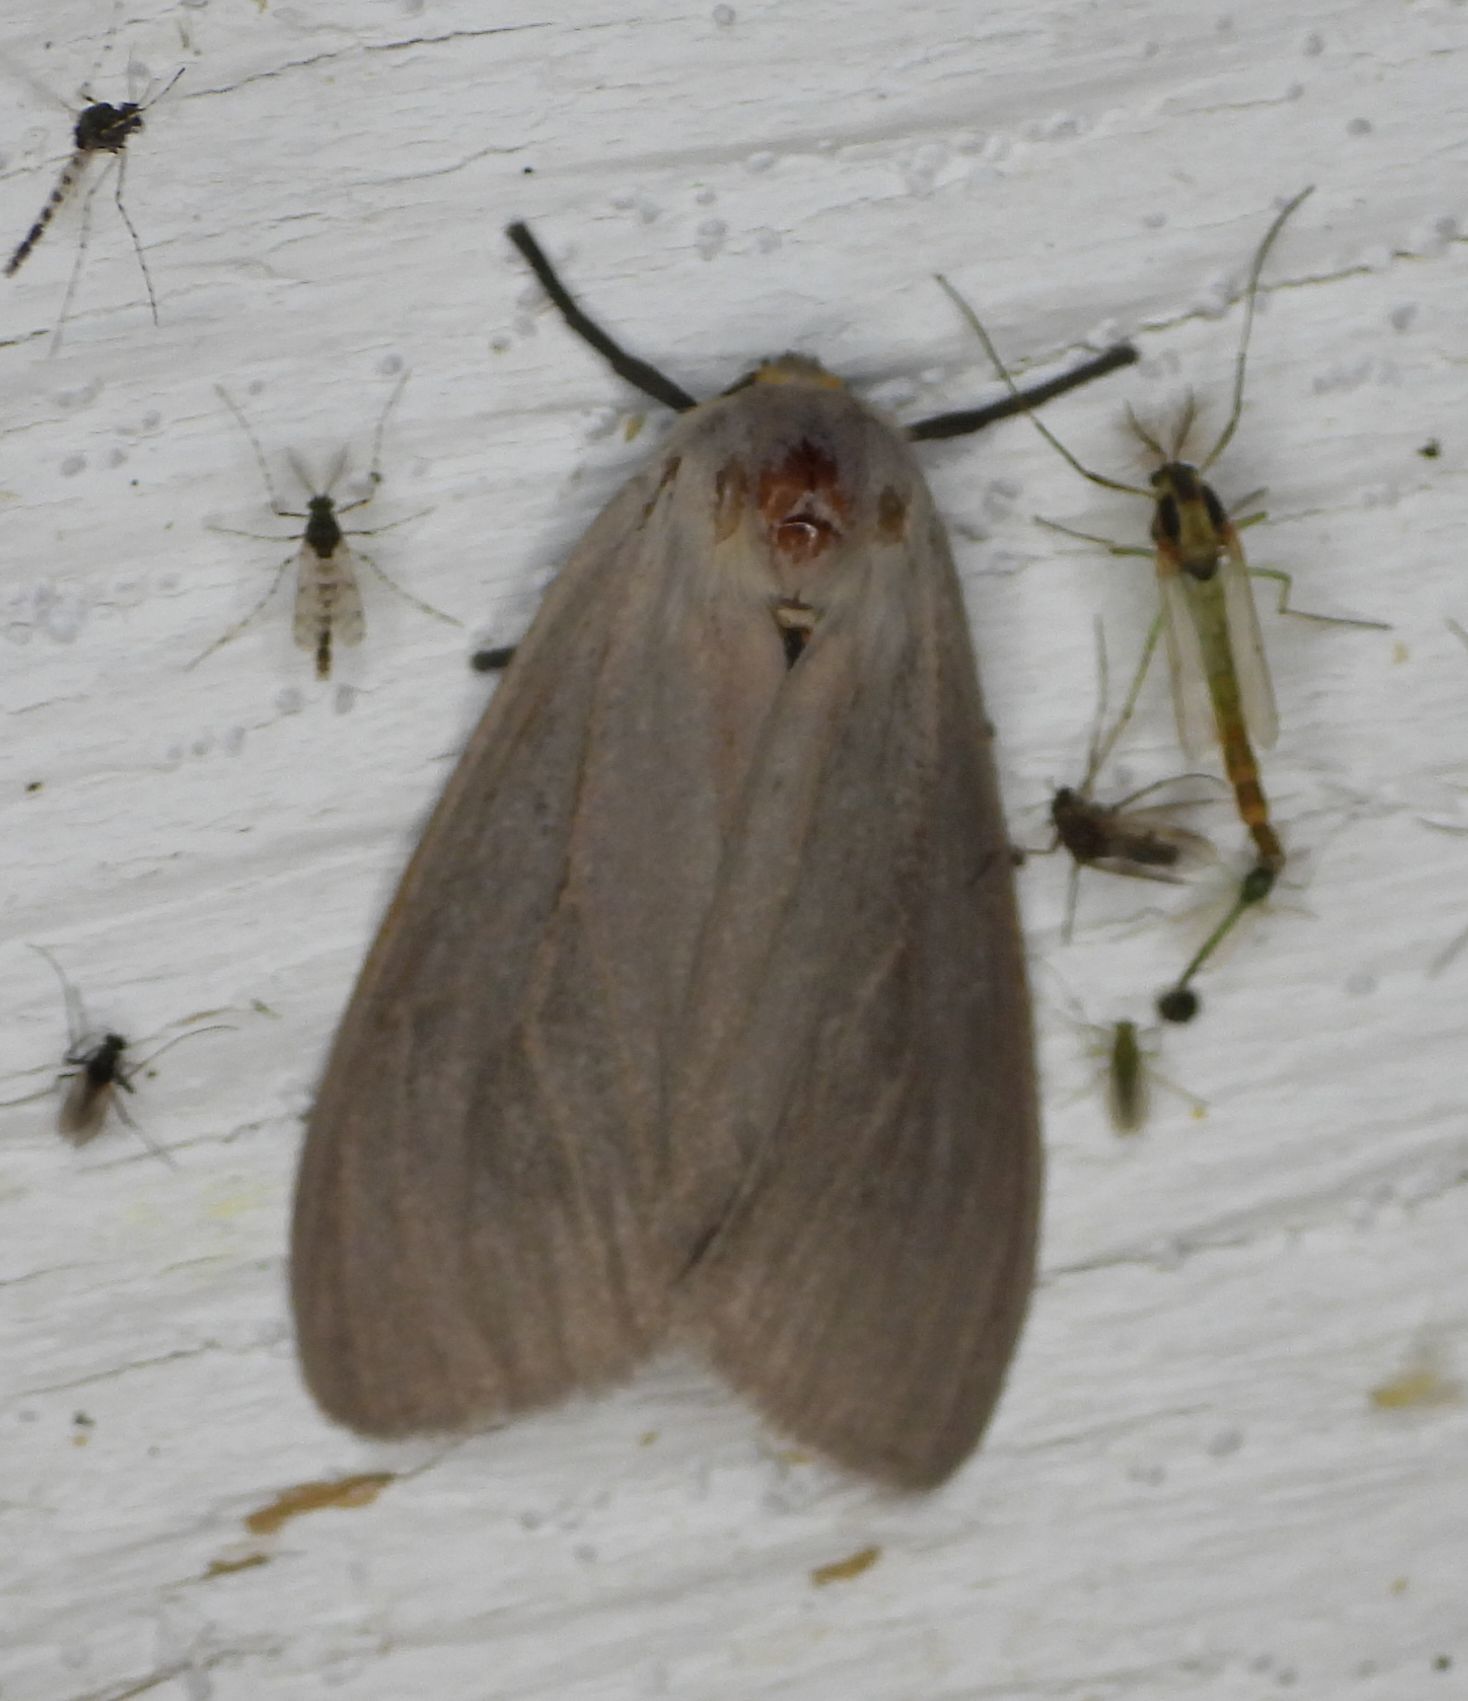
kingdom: Animalia
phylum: Arthropoda
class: Insecta
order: Lepidoptera
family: Erebidae
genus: Euchaetes
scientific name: Euchaetes egle
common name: Milkweed tussock moth
